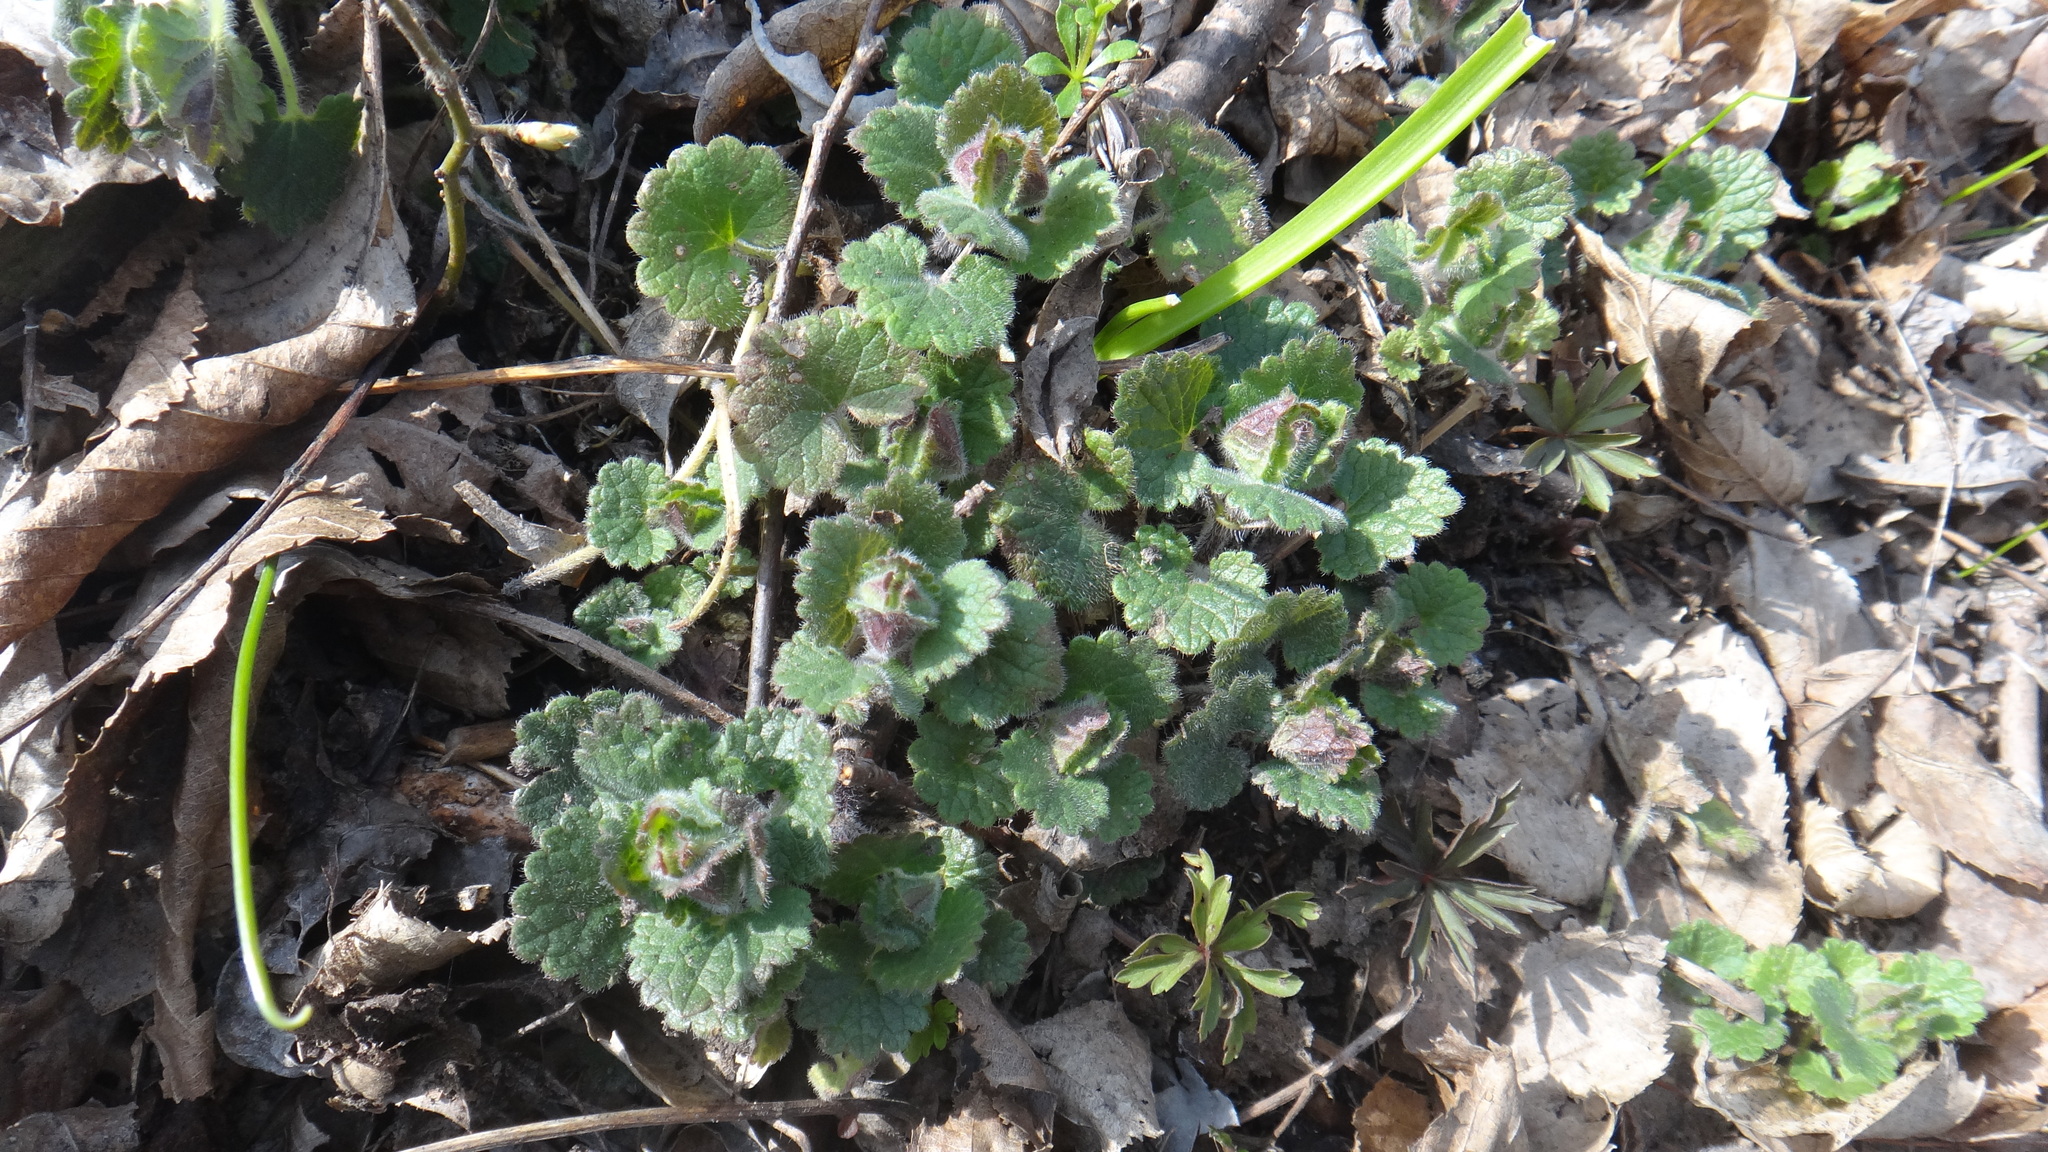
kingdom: Plantae
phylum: Tracheophyta
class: Magnoliopsida
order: Lamiales
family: Lamiaceae
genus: Glechoma
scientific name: Glechoma hirsuta
